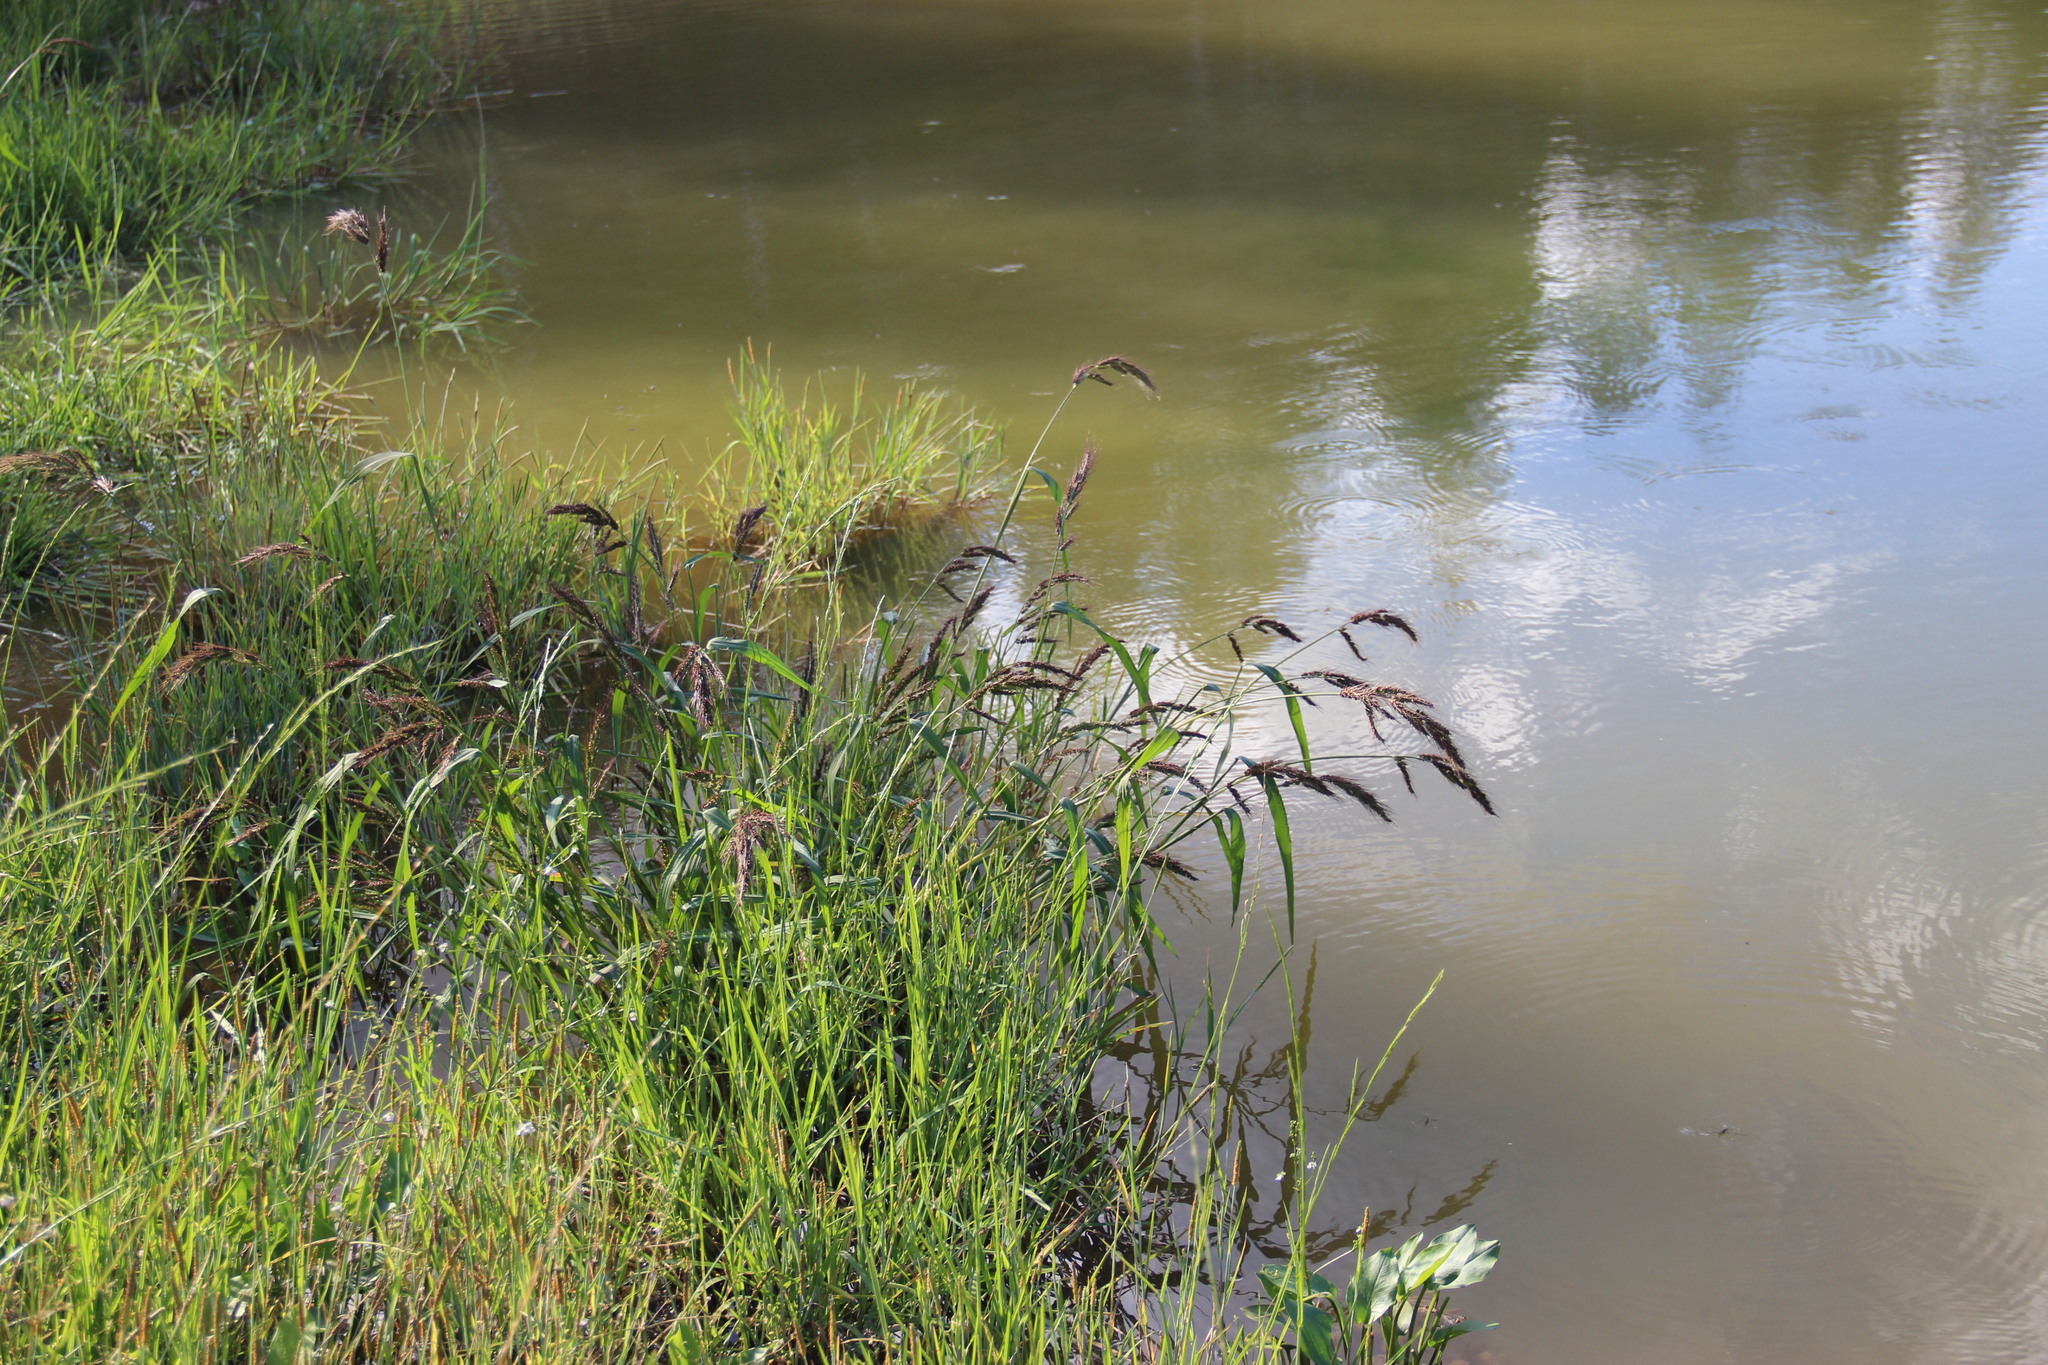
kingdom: Plantae
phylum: Tracheophyta
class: Liliopsida
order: Poales
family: Poaceae
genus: Echinochloa
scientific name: Echinochloa crus-galli
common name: Cockspur
